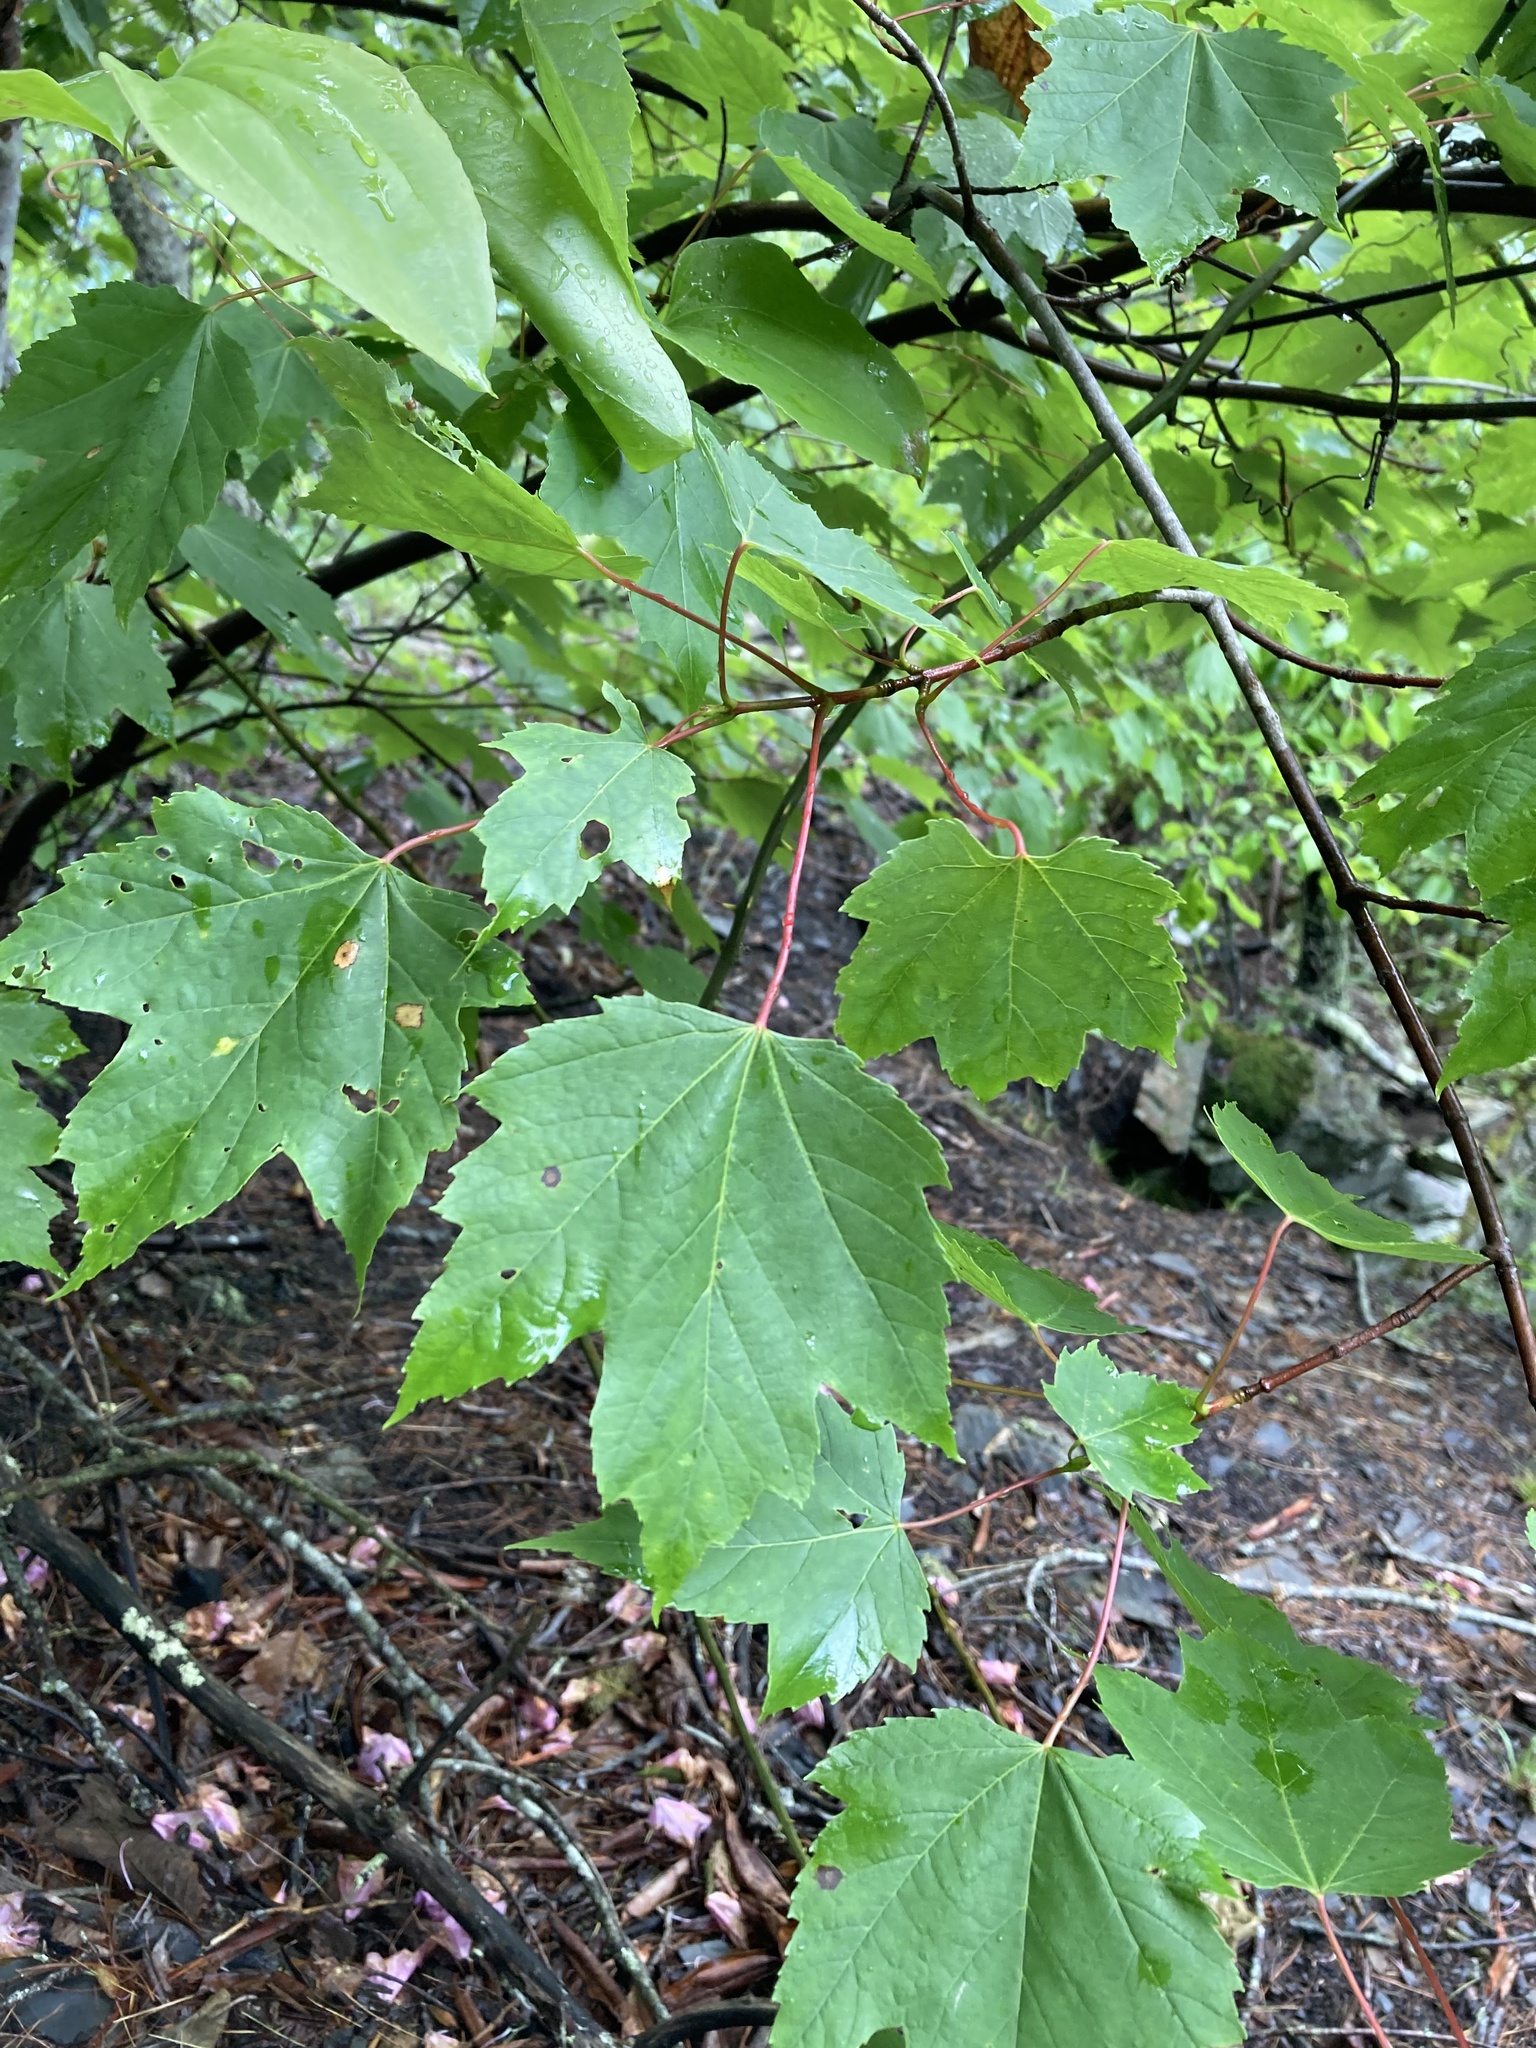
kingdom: Plantae
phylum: Tracheophyta
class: Magnoliopsida
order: Sapindales
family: Sapindaceae
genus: Acer
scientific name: Acer rubrum
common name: Red maple
